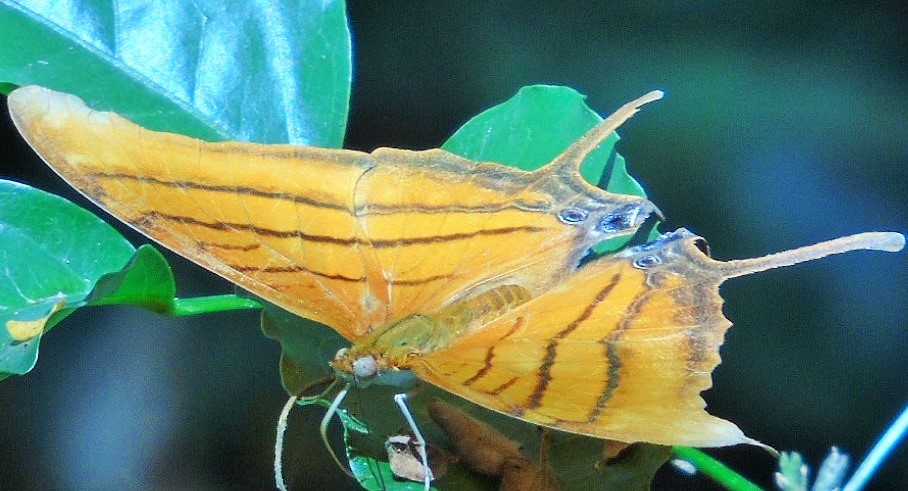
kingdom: Animalia
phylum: Arthropoda
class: Insecta
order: Lepidoptera
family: Nymphalidae
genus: Marpesia
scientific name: Marpesia petreus
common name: Red dagger wing
